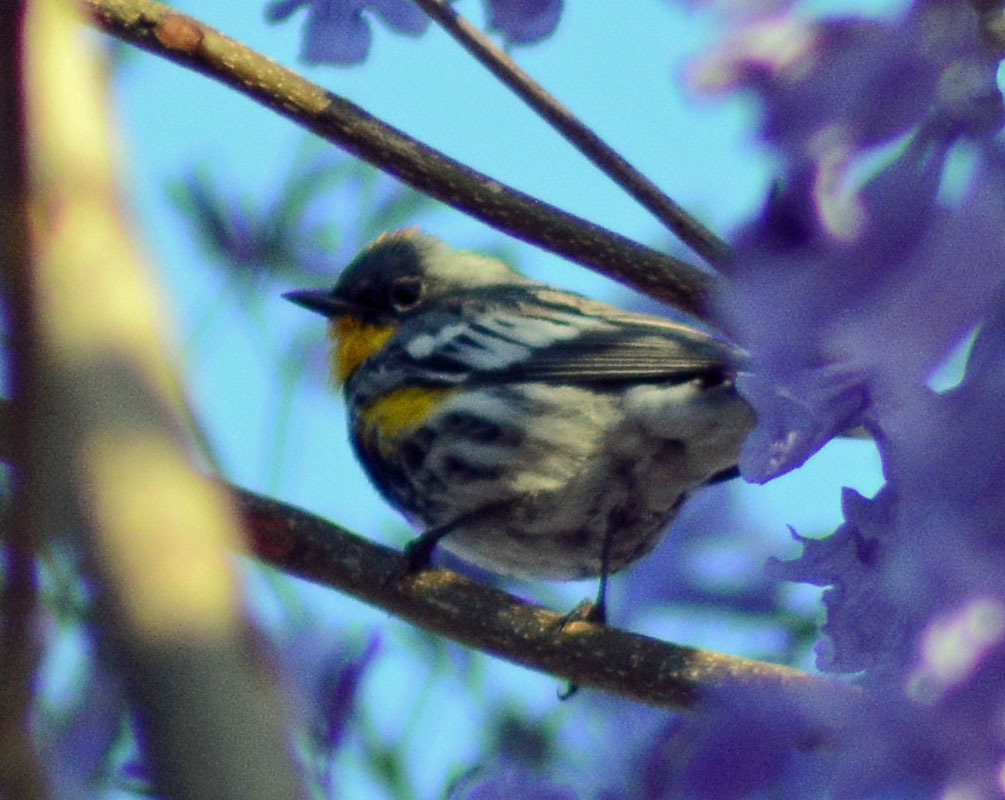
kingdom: Animalia
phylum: Chordata
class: Aves
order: Passeriformes
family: Parulidae
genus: Setophaga
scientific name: Setophaga auduboni
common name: Audubon's warbler
